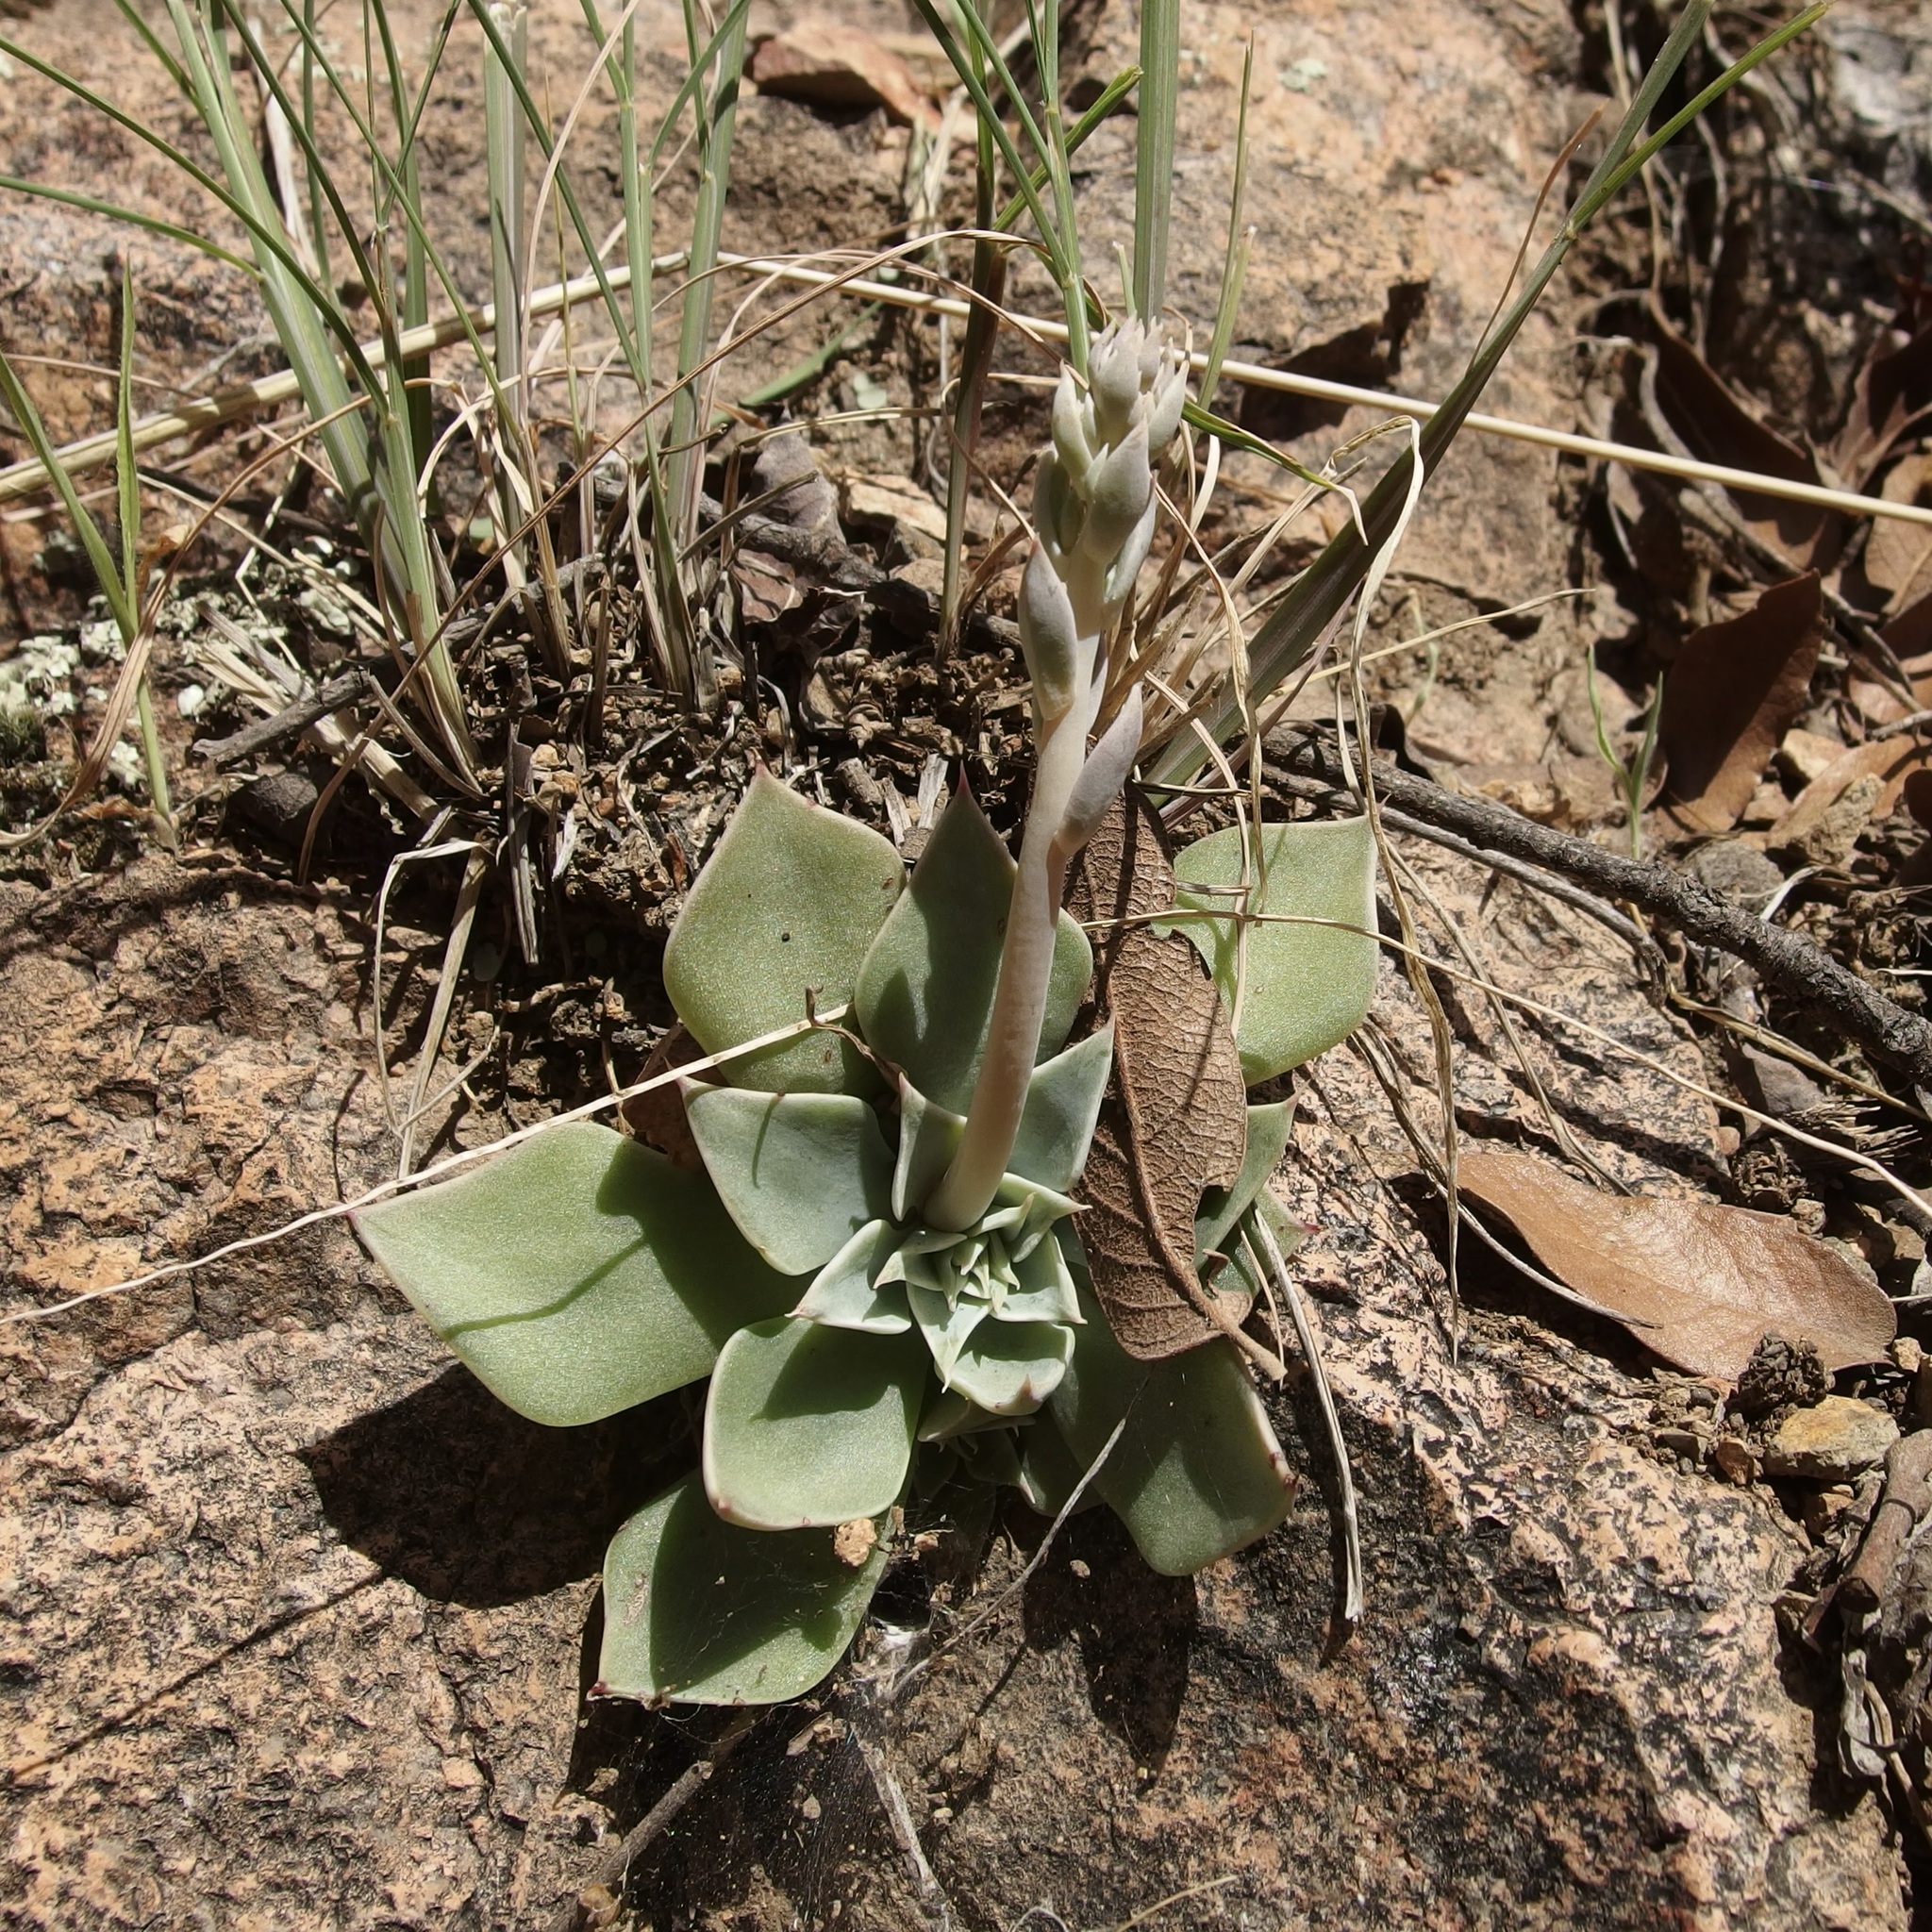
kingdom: Plantae
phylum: Tracheophyta
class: Magnoliopsida
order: Saxifragales
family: Crassulaceae
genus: Graptopetalum
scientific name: Graptopetalum bartramii
